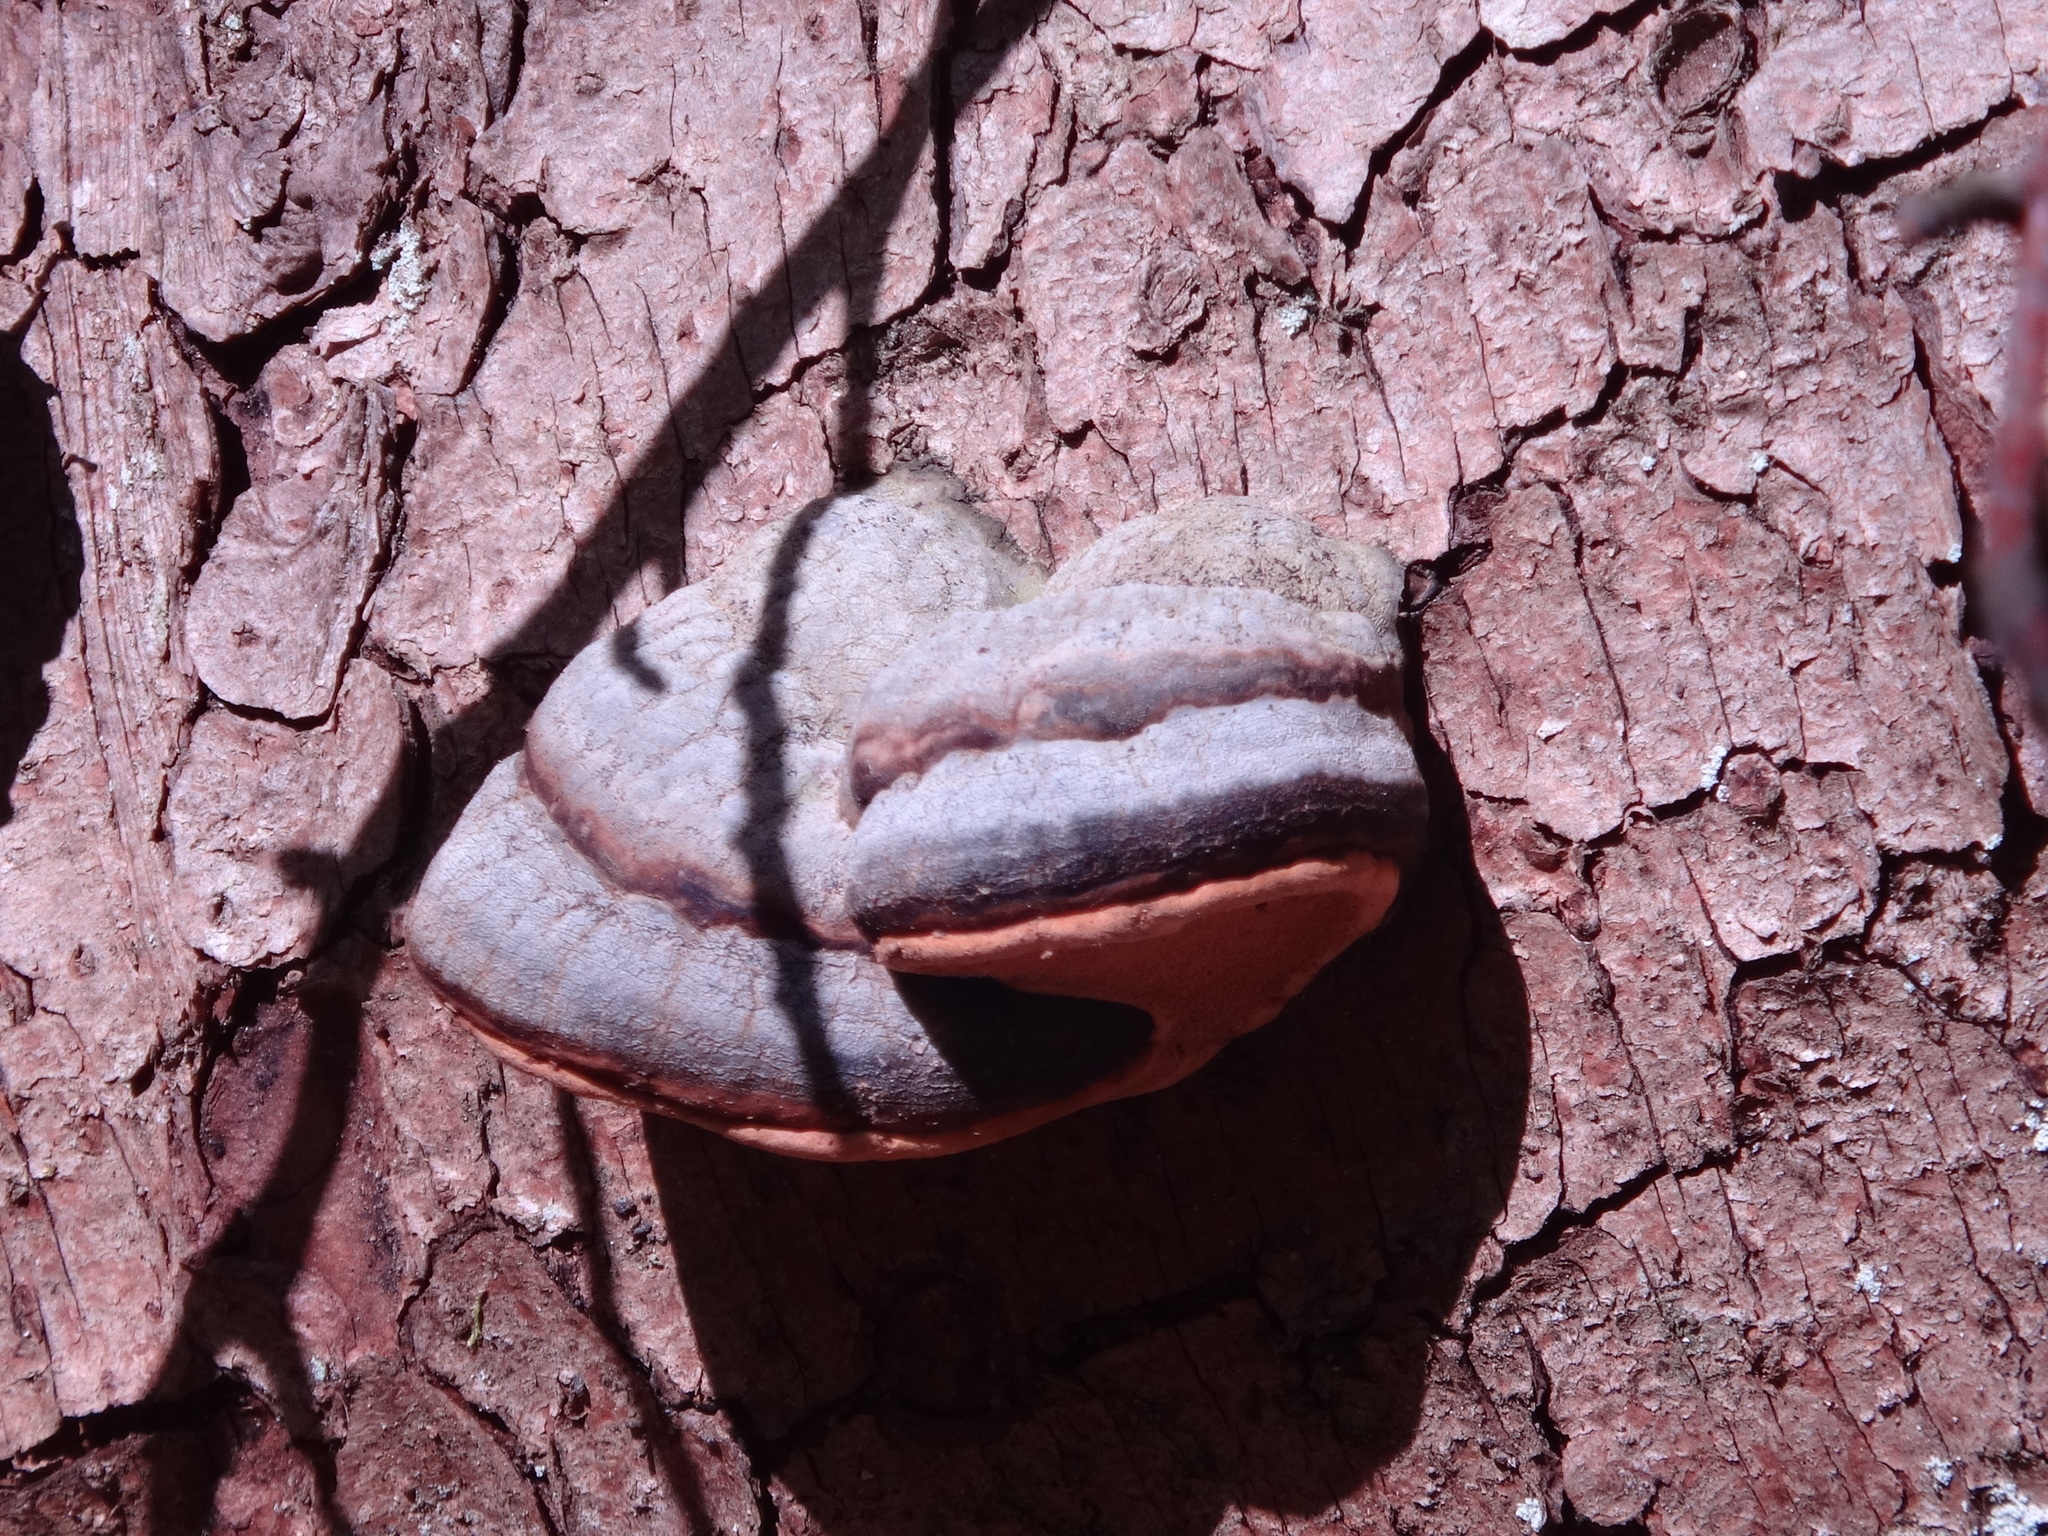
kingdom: Fungi
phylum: Basidiomycota
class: Agaricomycetes
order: Polyporales
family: Fomitopsidaceae
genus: Fomitopsis
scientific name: Fomitopsis pinicola
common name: Red-belted bracket
